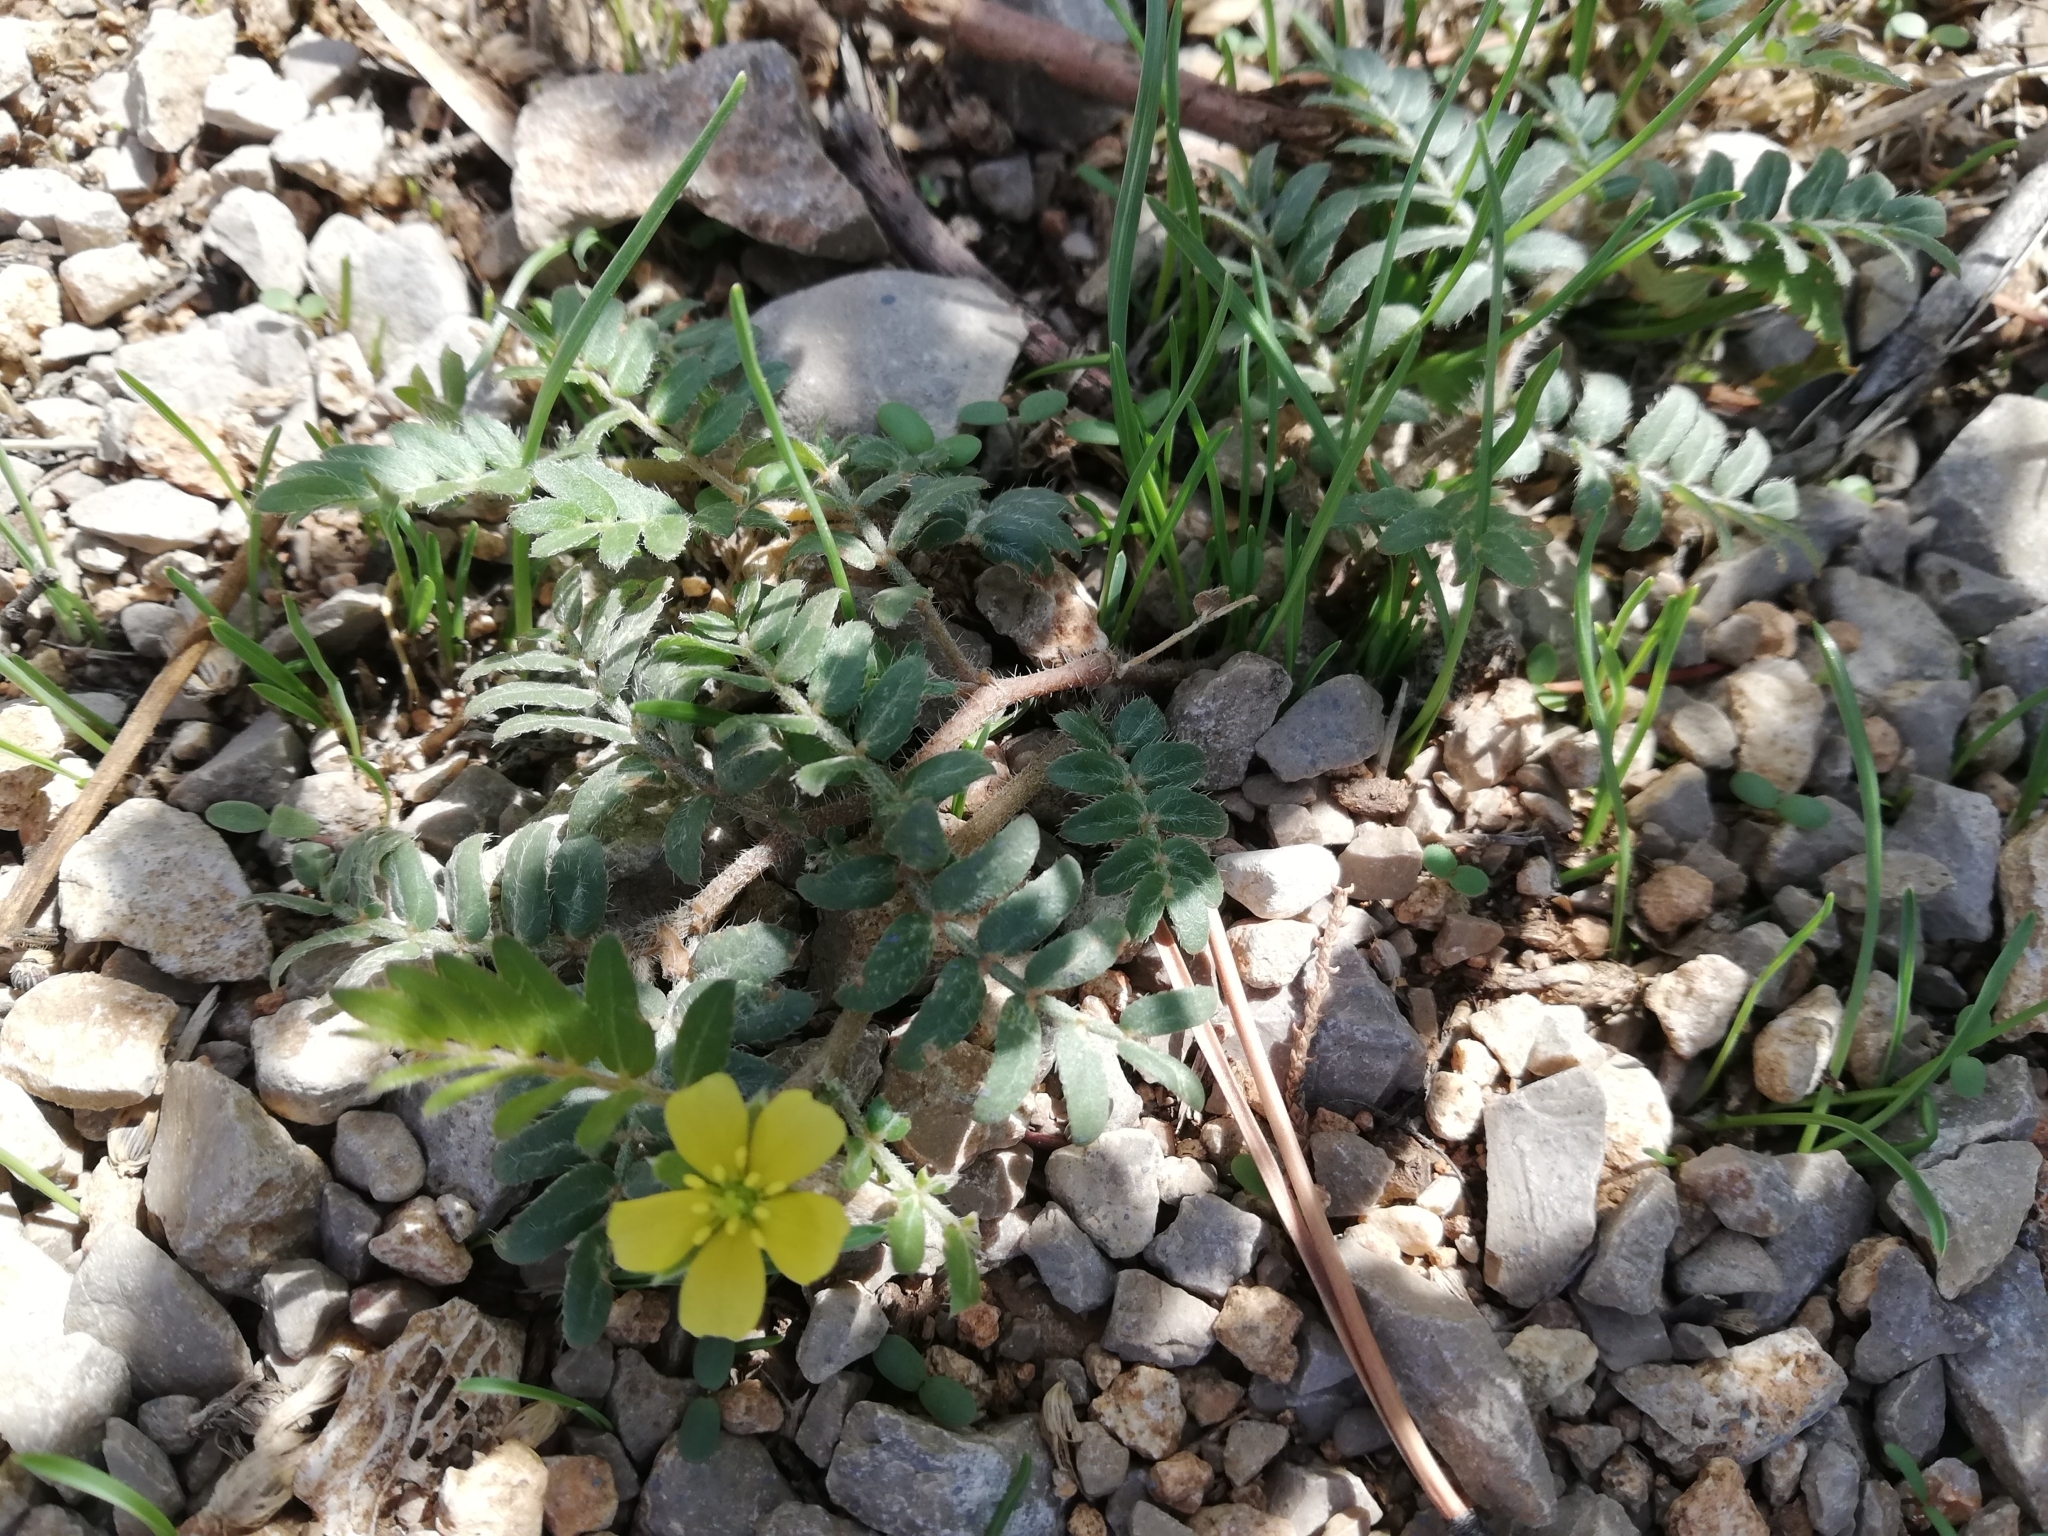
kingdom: Plantae
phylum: Tracheophyta
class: Magnoliopsida
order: Zygophyllales
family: Zygophyllaceae
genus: Tribulus
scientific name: Tribulus terrestris
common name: Puncturevine
